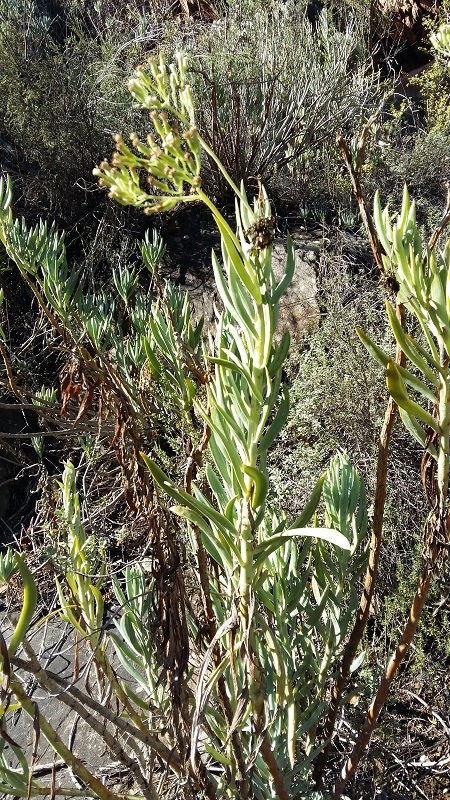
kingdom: Plantae
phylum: Tracheophyta
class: Magnoliopsida
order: Asterales
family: Asteraceae
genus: Curio
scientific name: Curio ficoides
